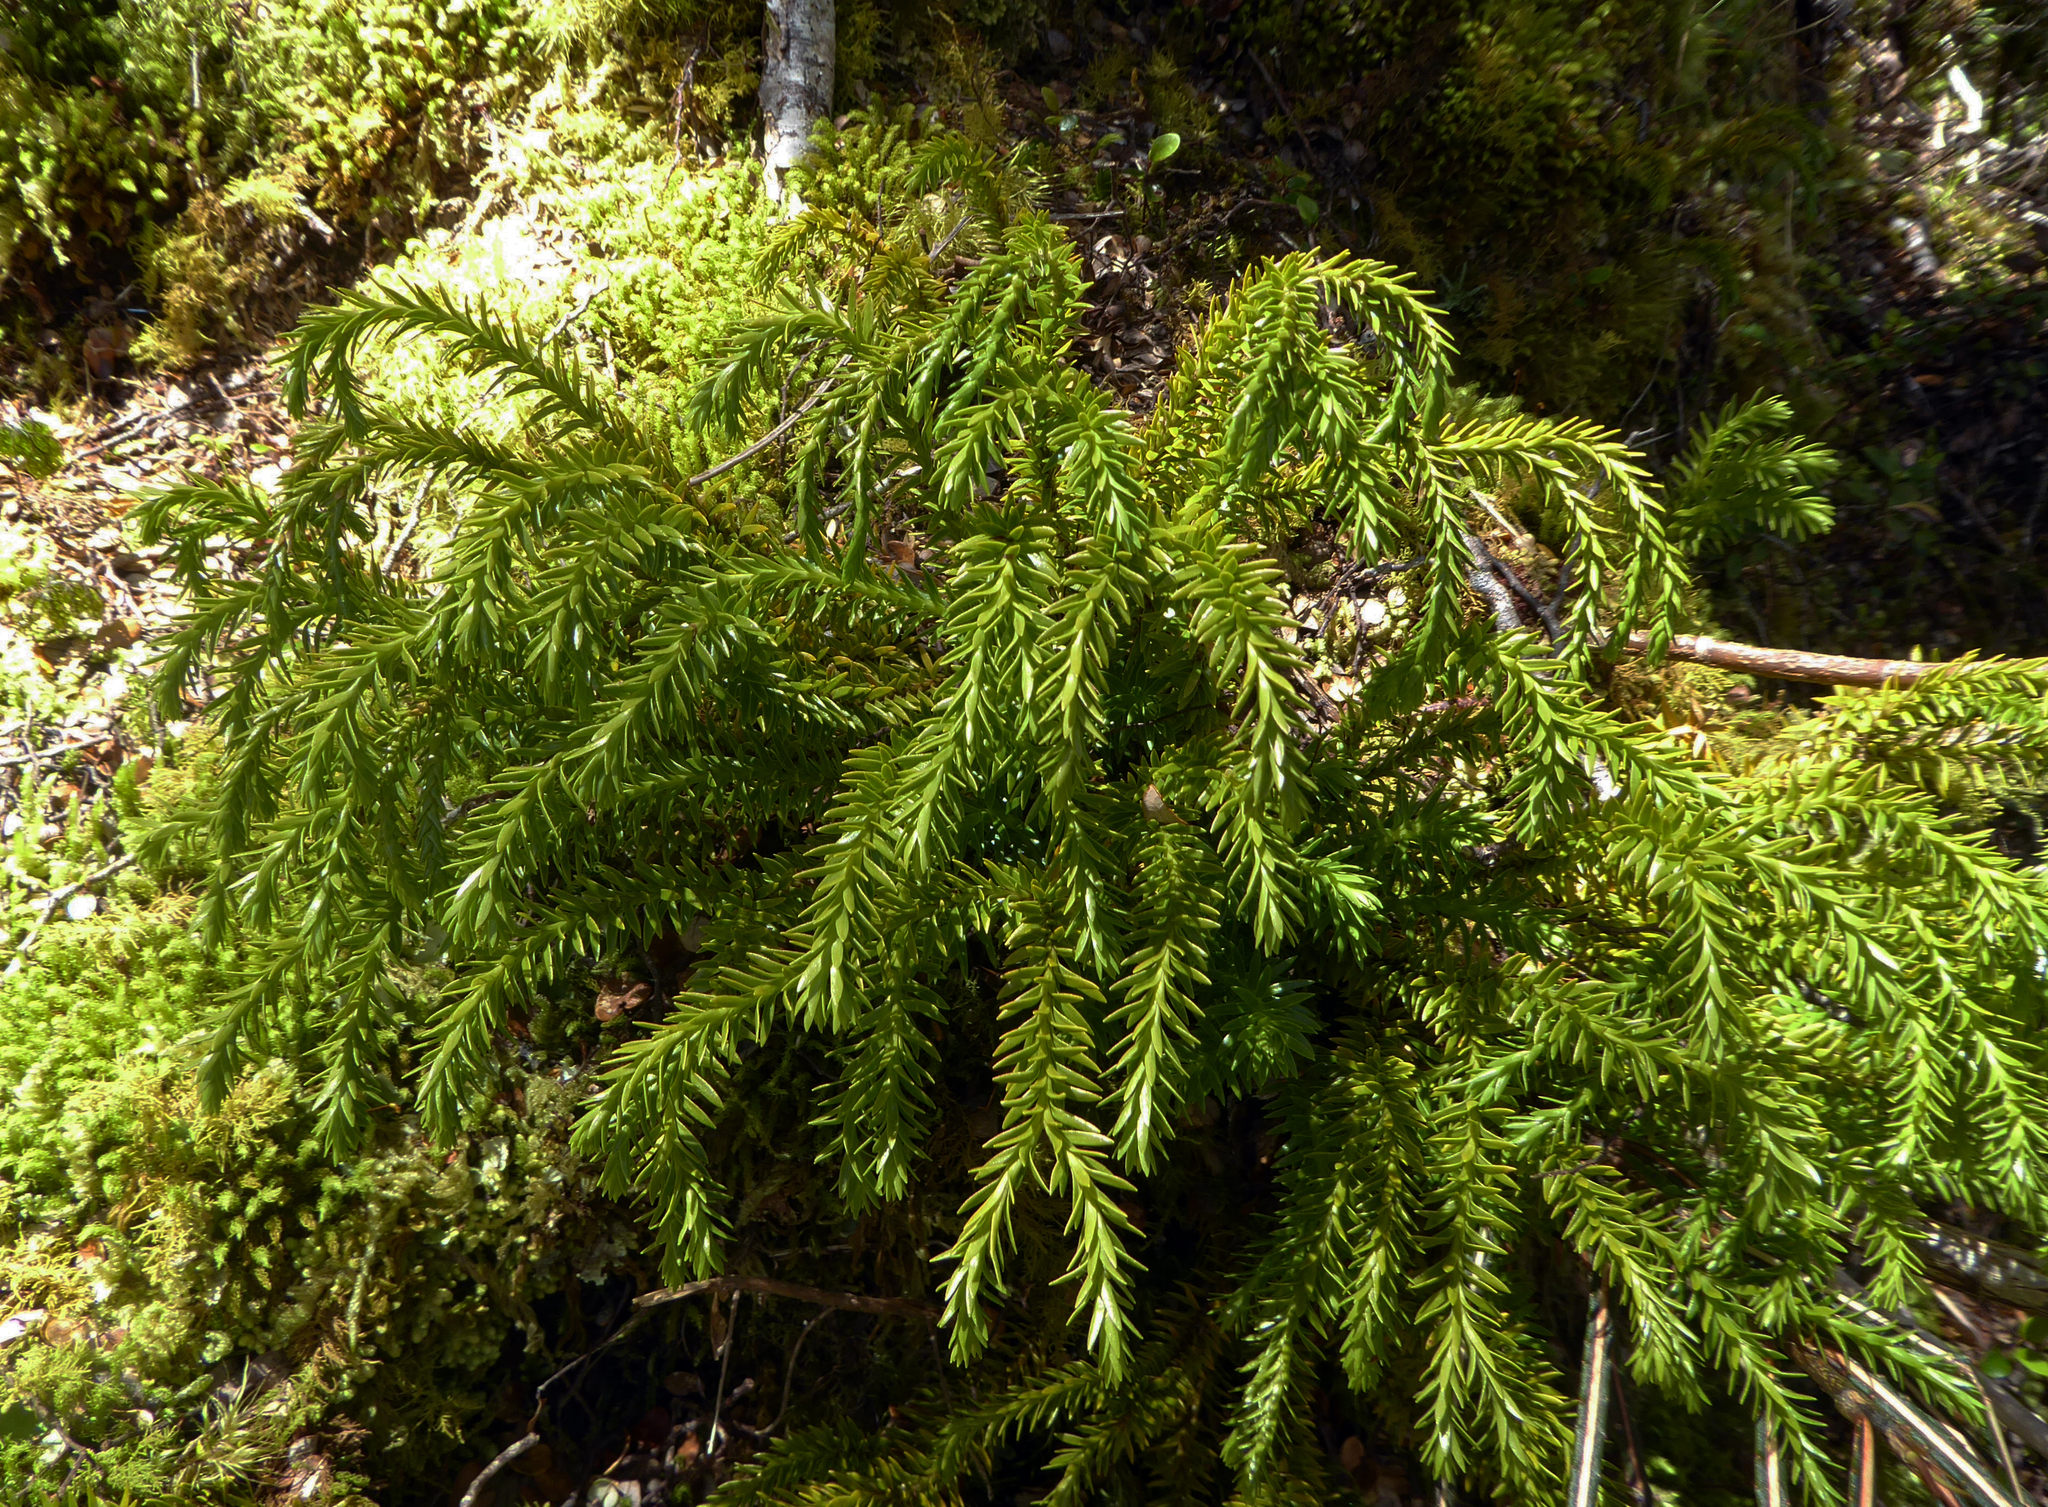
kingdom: Plantae
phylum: Tracheophyta
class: Lycopodiopsida
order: Lycopodiales
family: Lycopodiaceae
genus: Phlegmariurus
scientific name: Phlegmariurus varius
